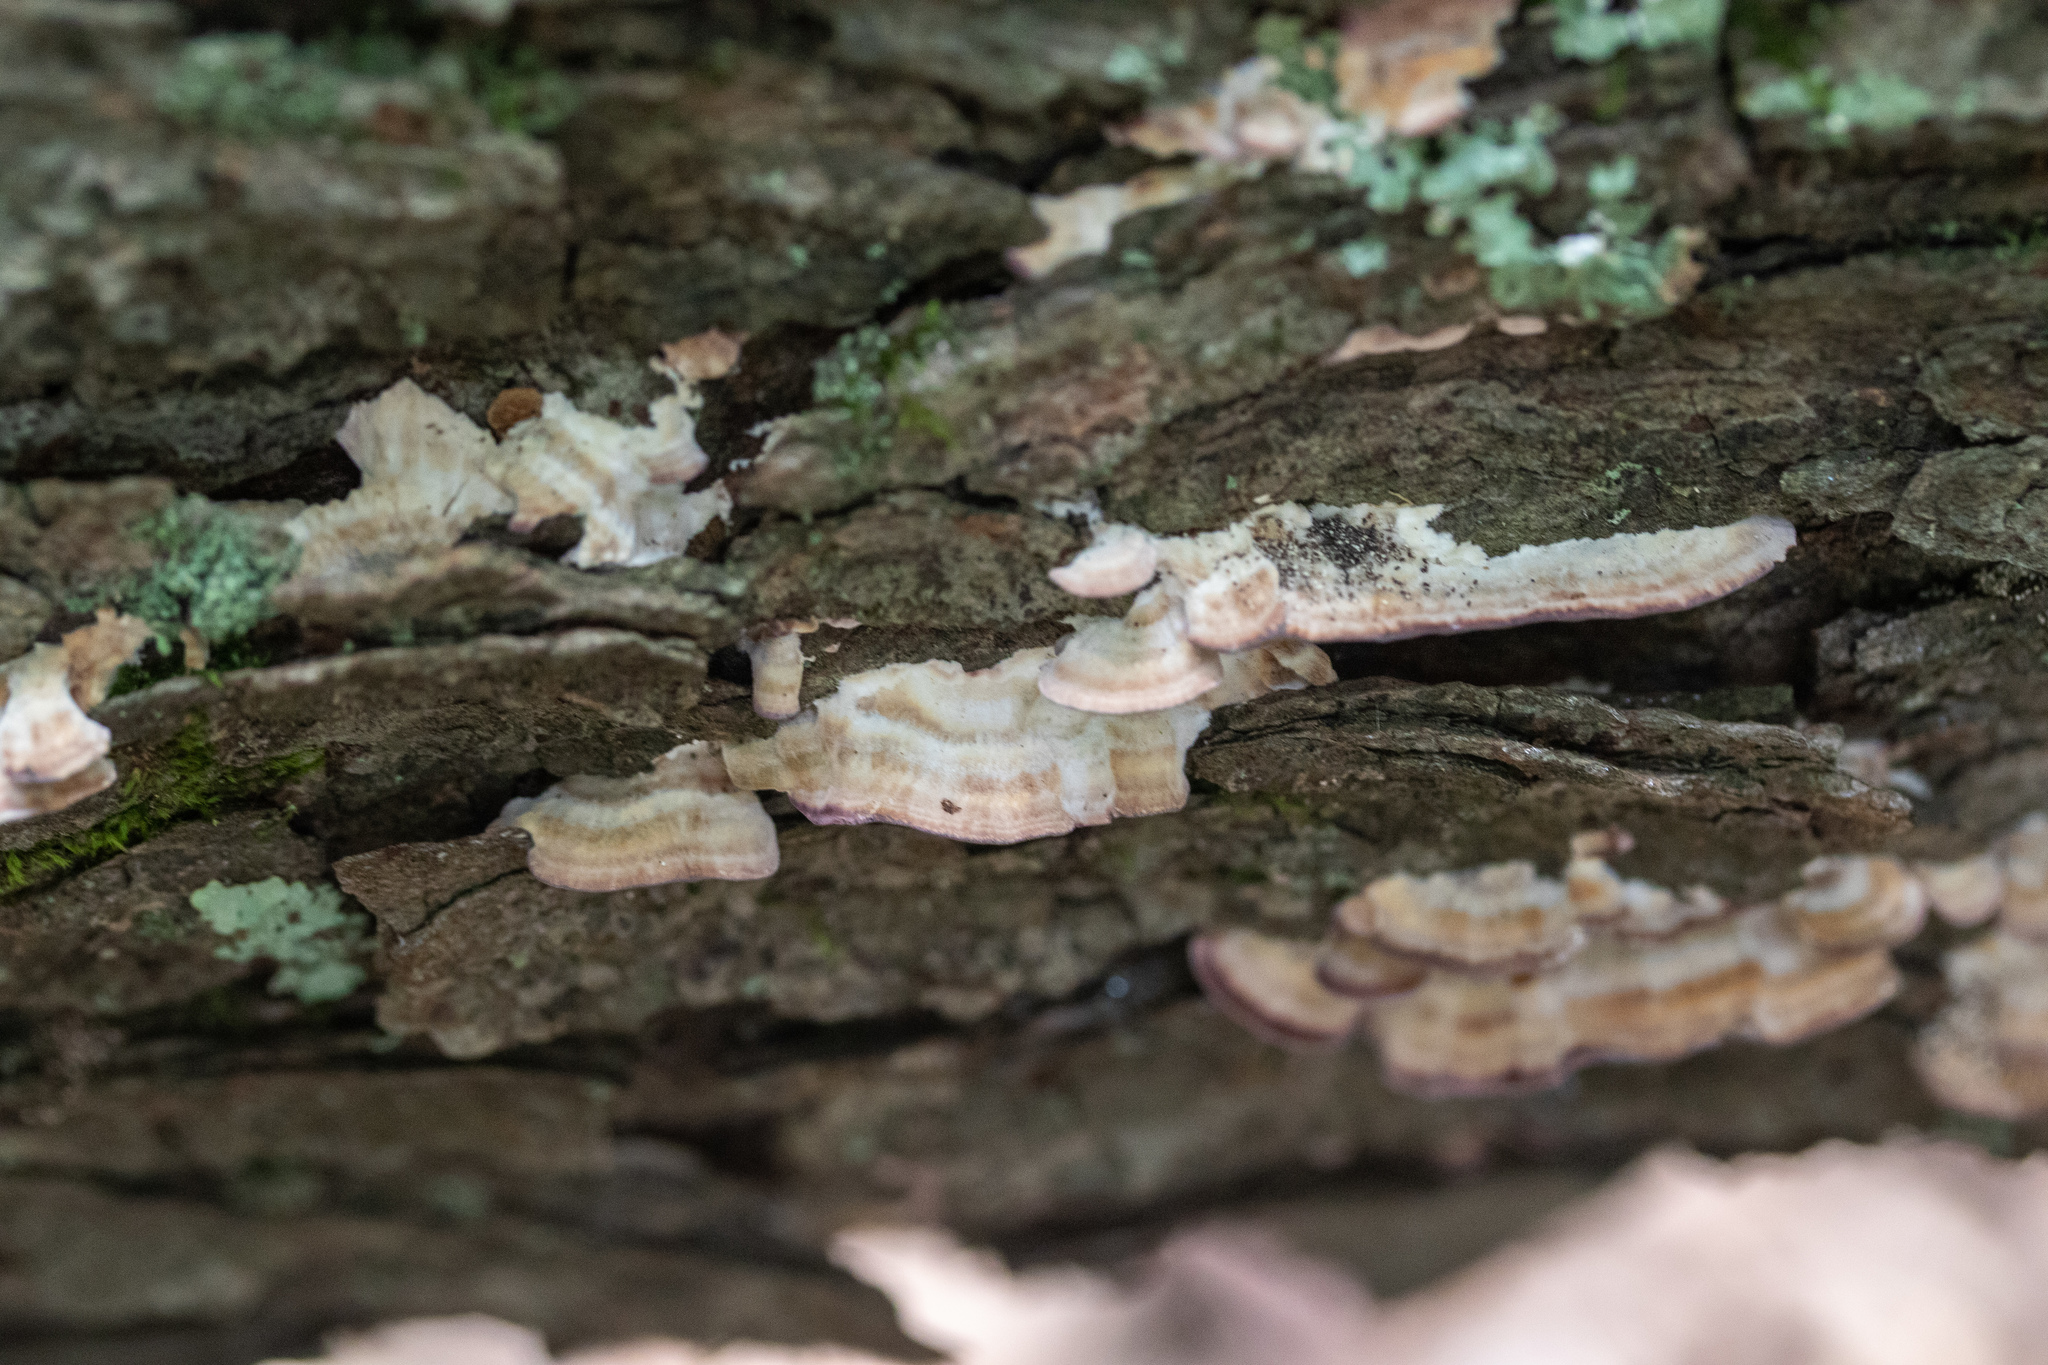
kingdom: Fungi
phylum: Basidiomycota
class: Agaricomycetes
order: Hymenochaetales
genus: Trichaptum
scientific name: Trichaptum biforme
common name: Violet-toothed polypore
